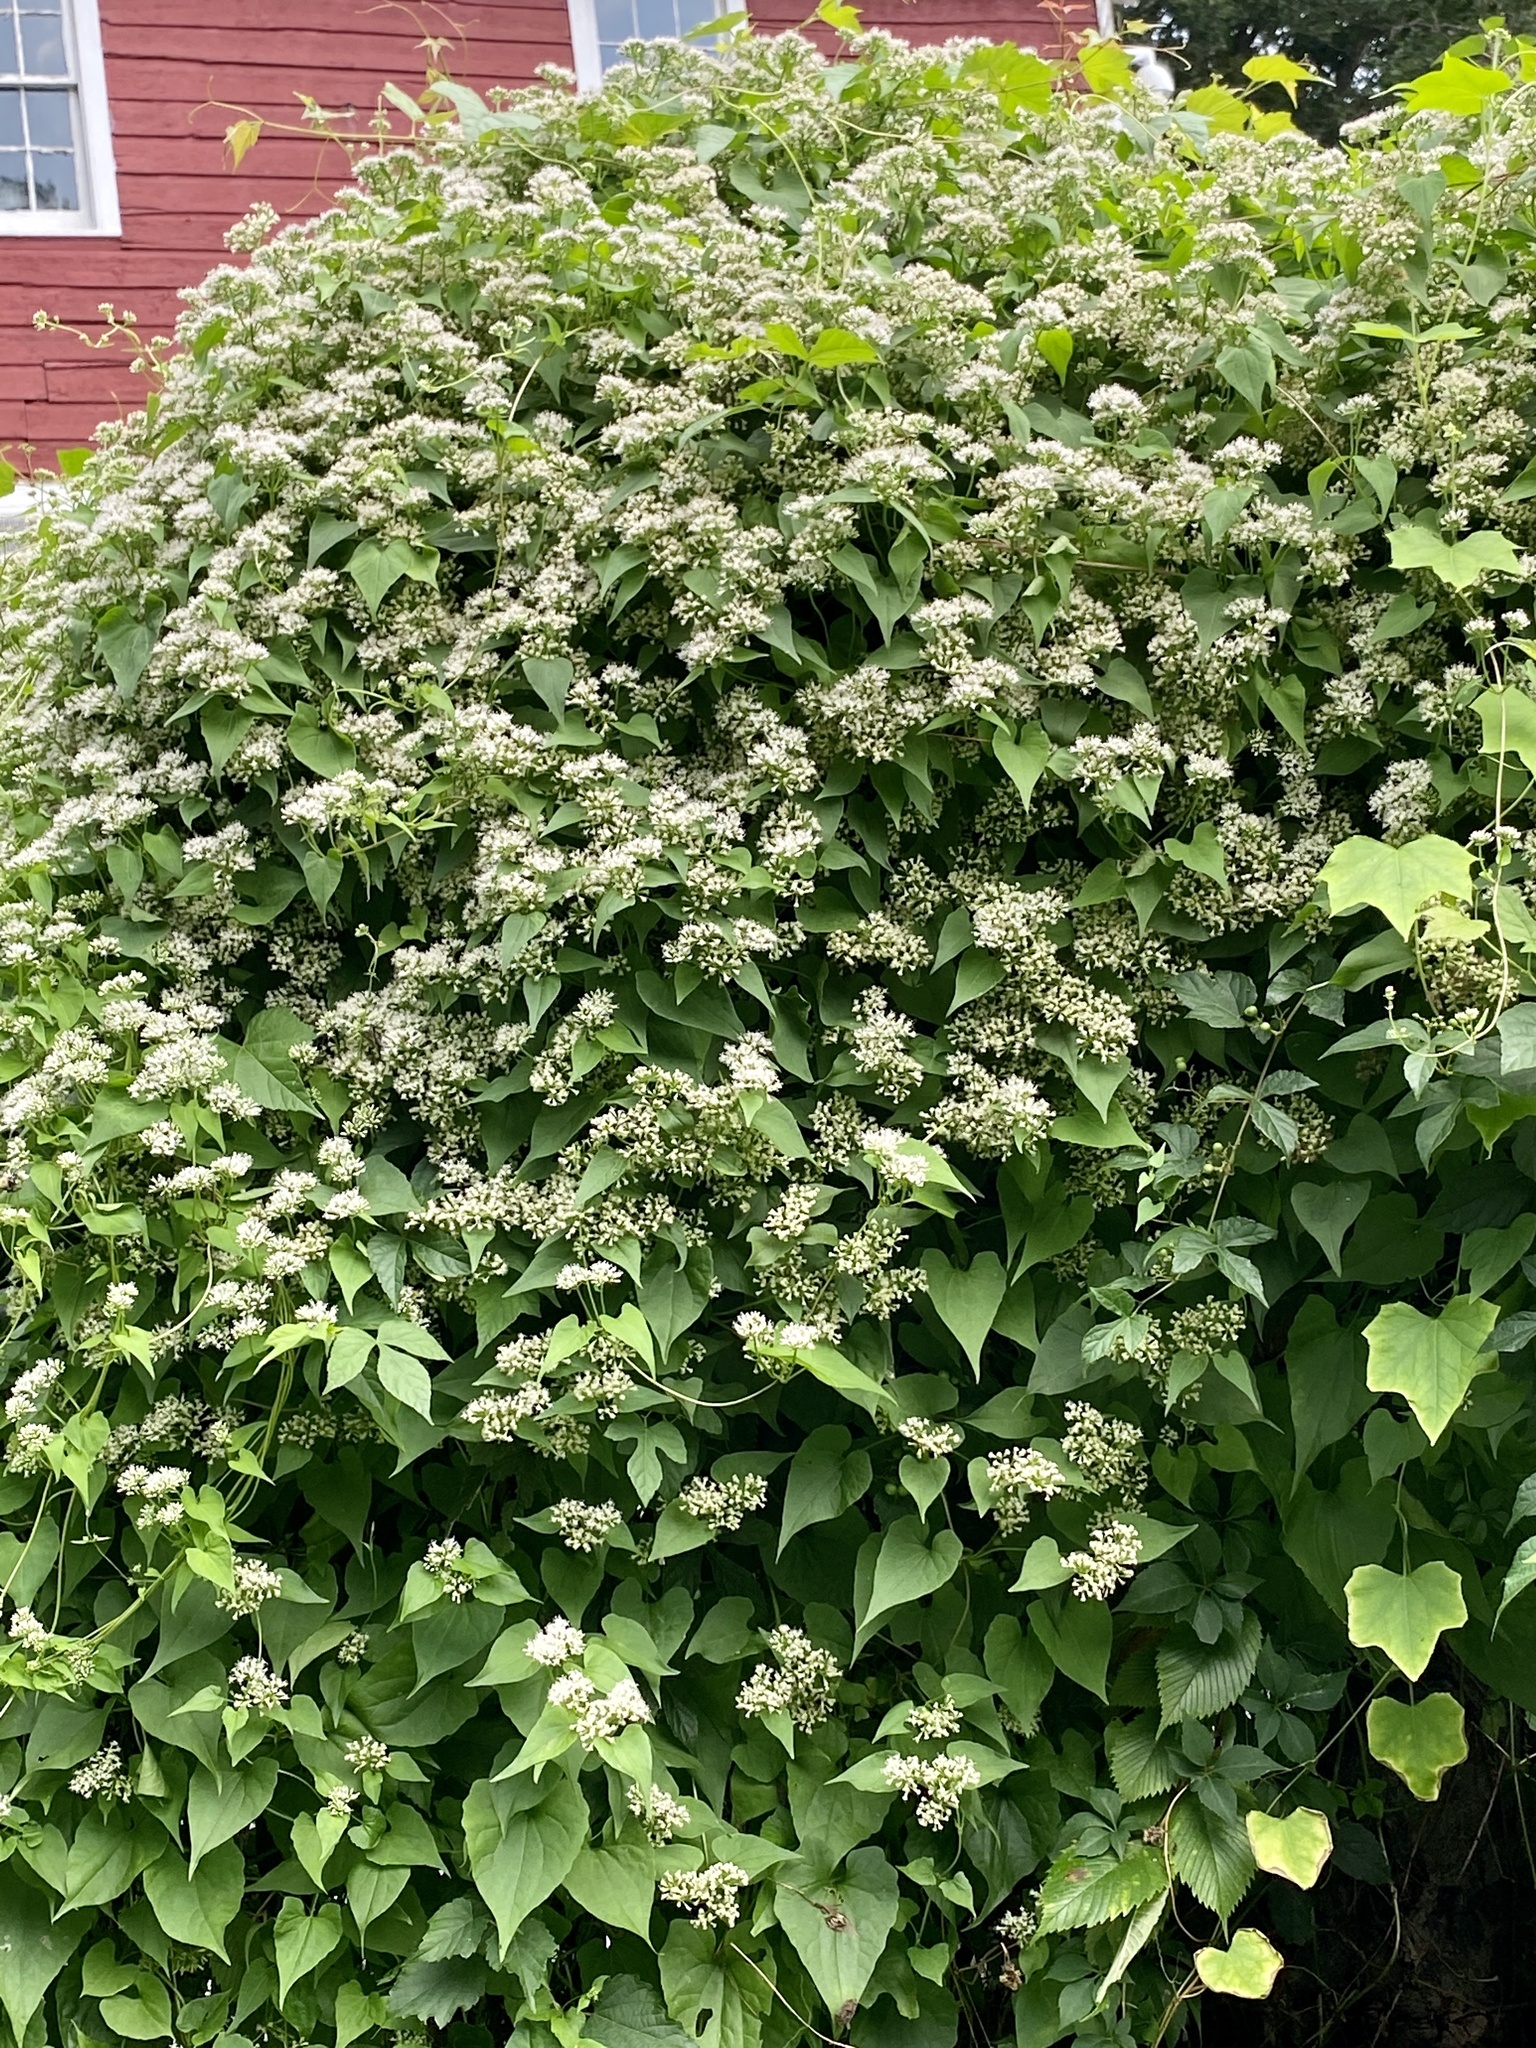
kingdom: Plantae
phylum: Tracheophyta
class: Magnoliopsida
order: Asterales
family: Asteraceae
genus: Mikania
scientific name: Mikania scandens
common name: Climbing hempvine
